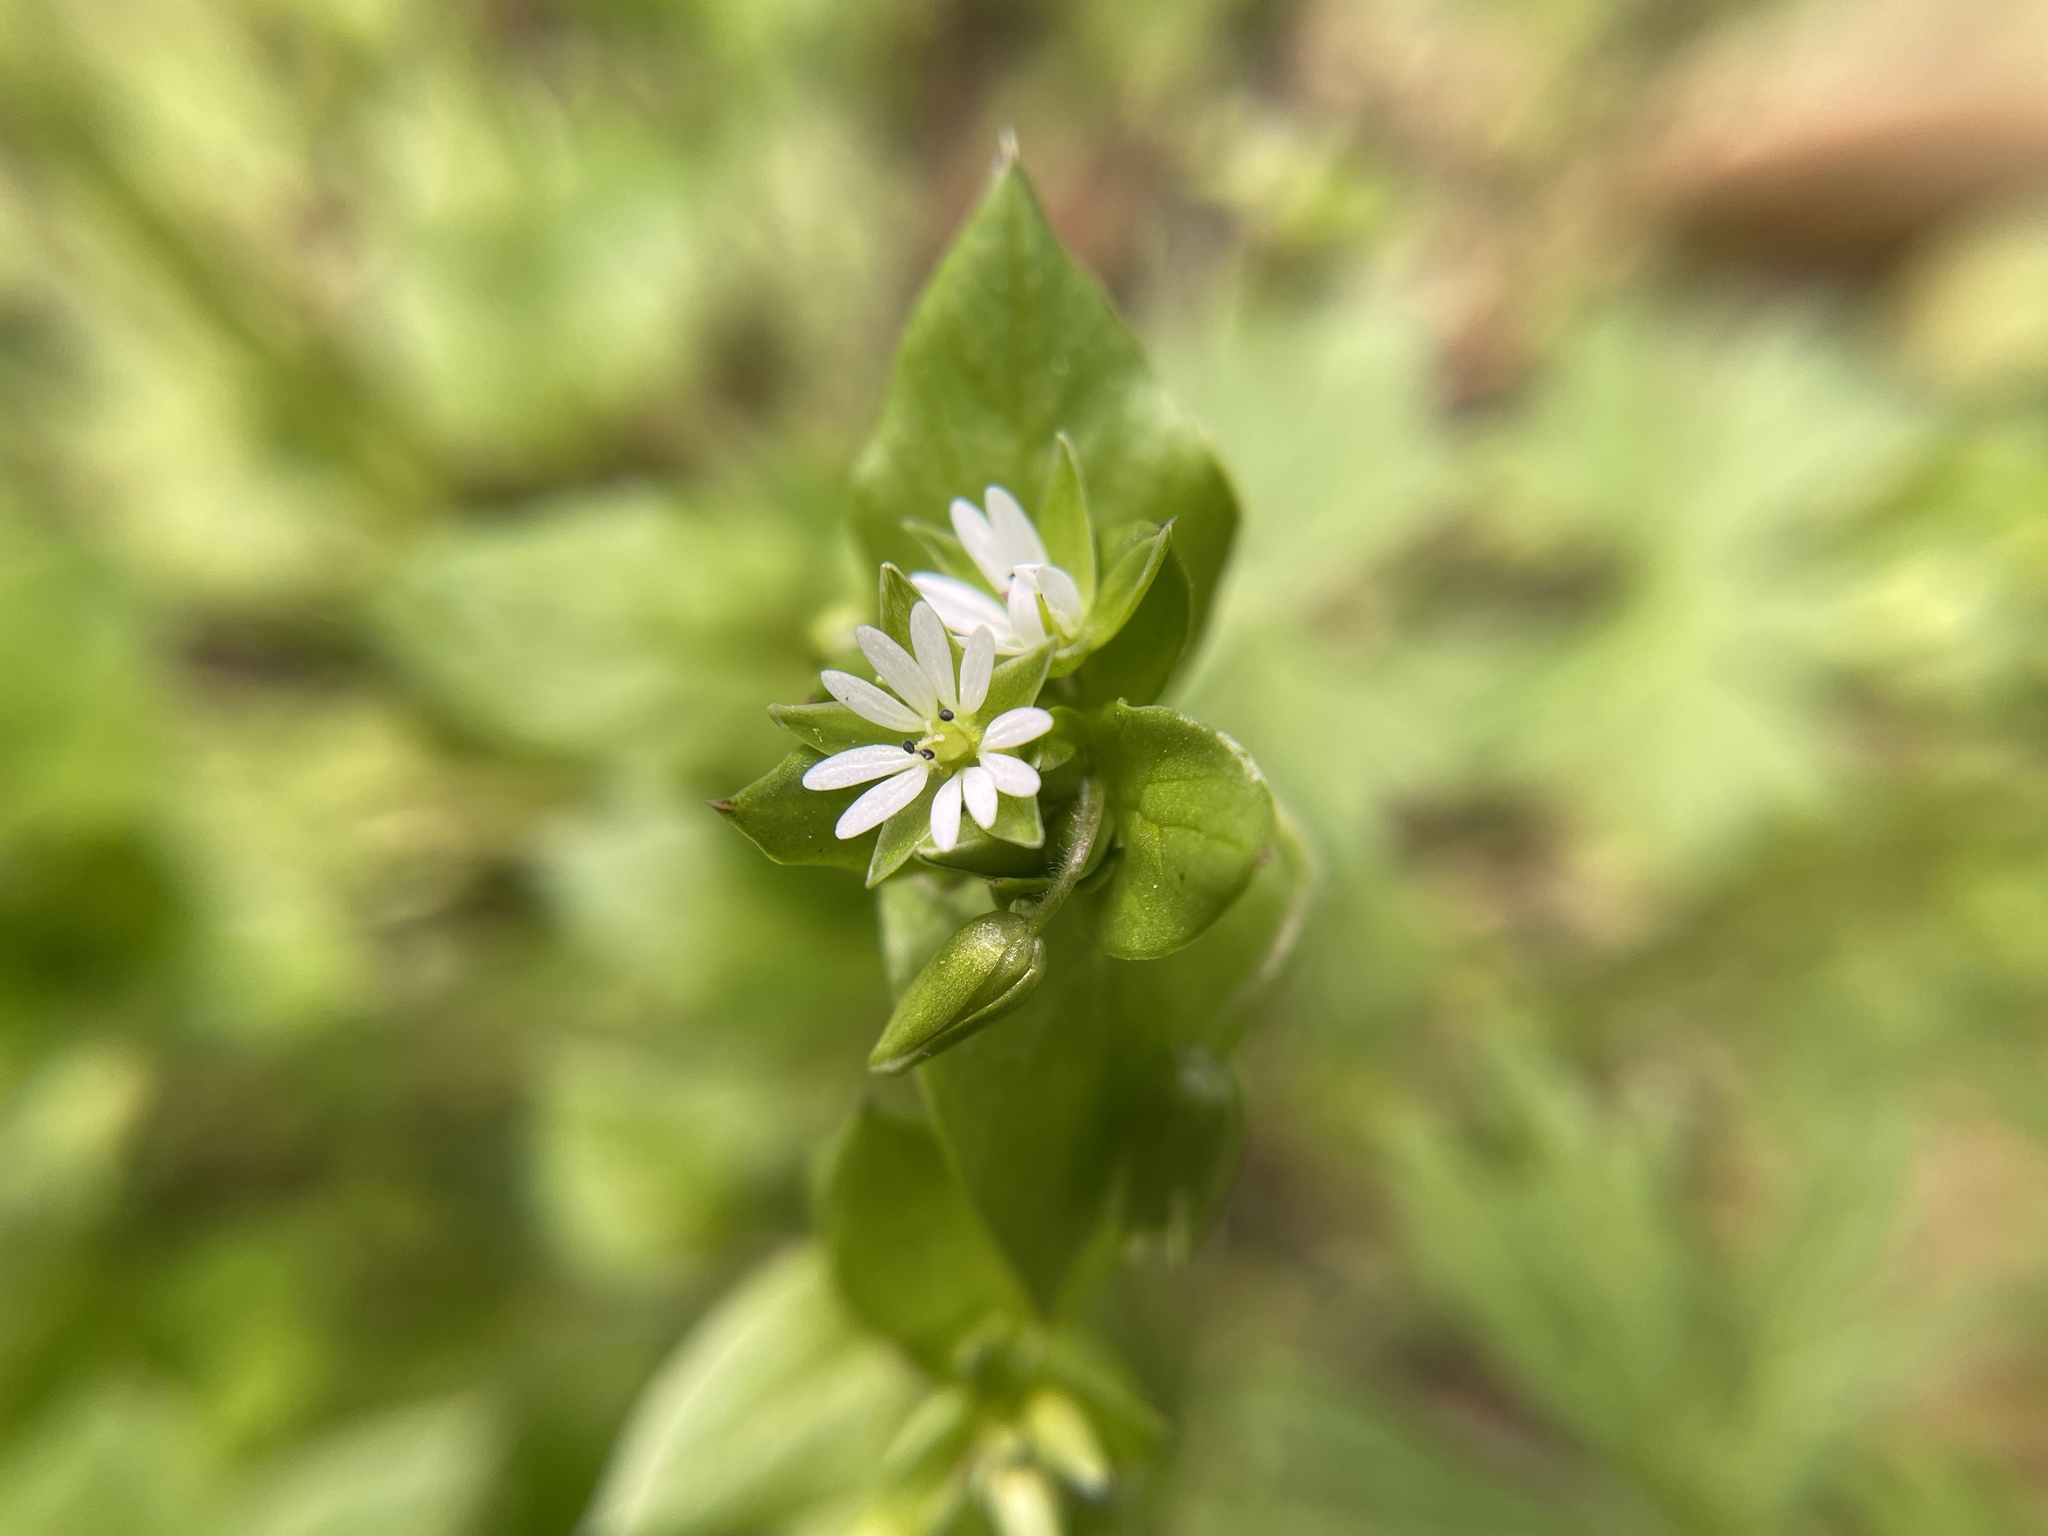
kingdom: Plantae
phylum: Tracheophyta
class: Magnoliopsida
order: Caryophyllales
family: Caryophyllaceae
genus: Stellaria
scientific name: Stellaria media
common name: Common chickweed
